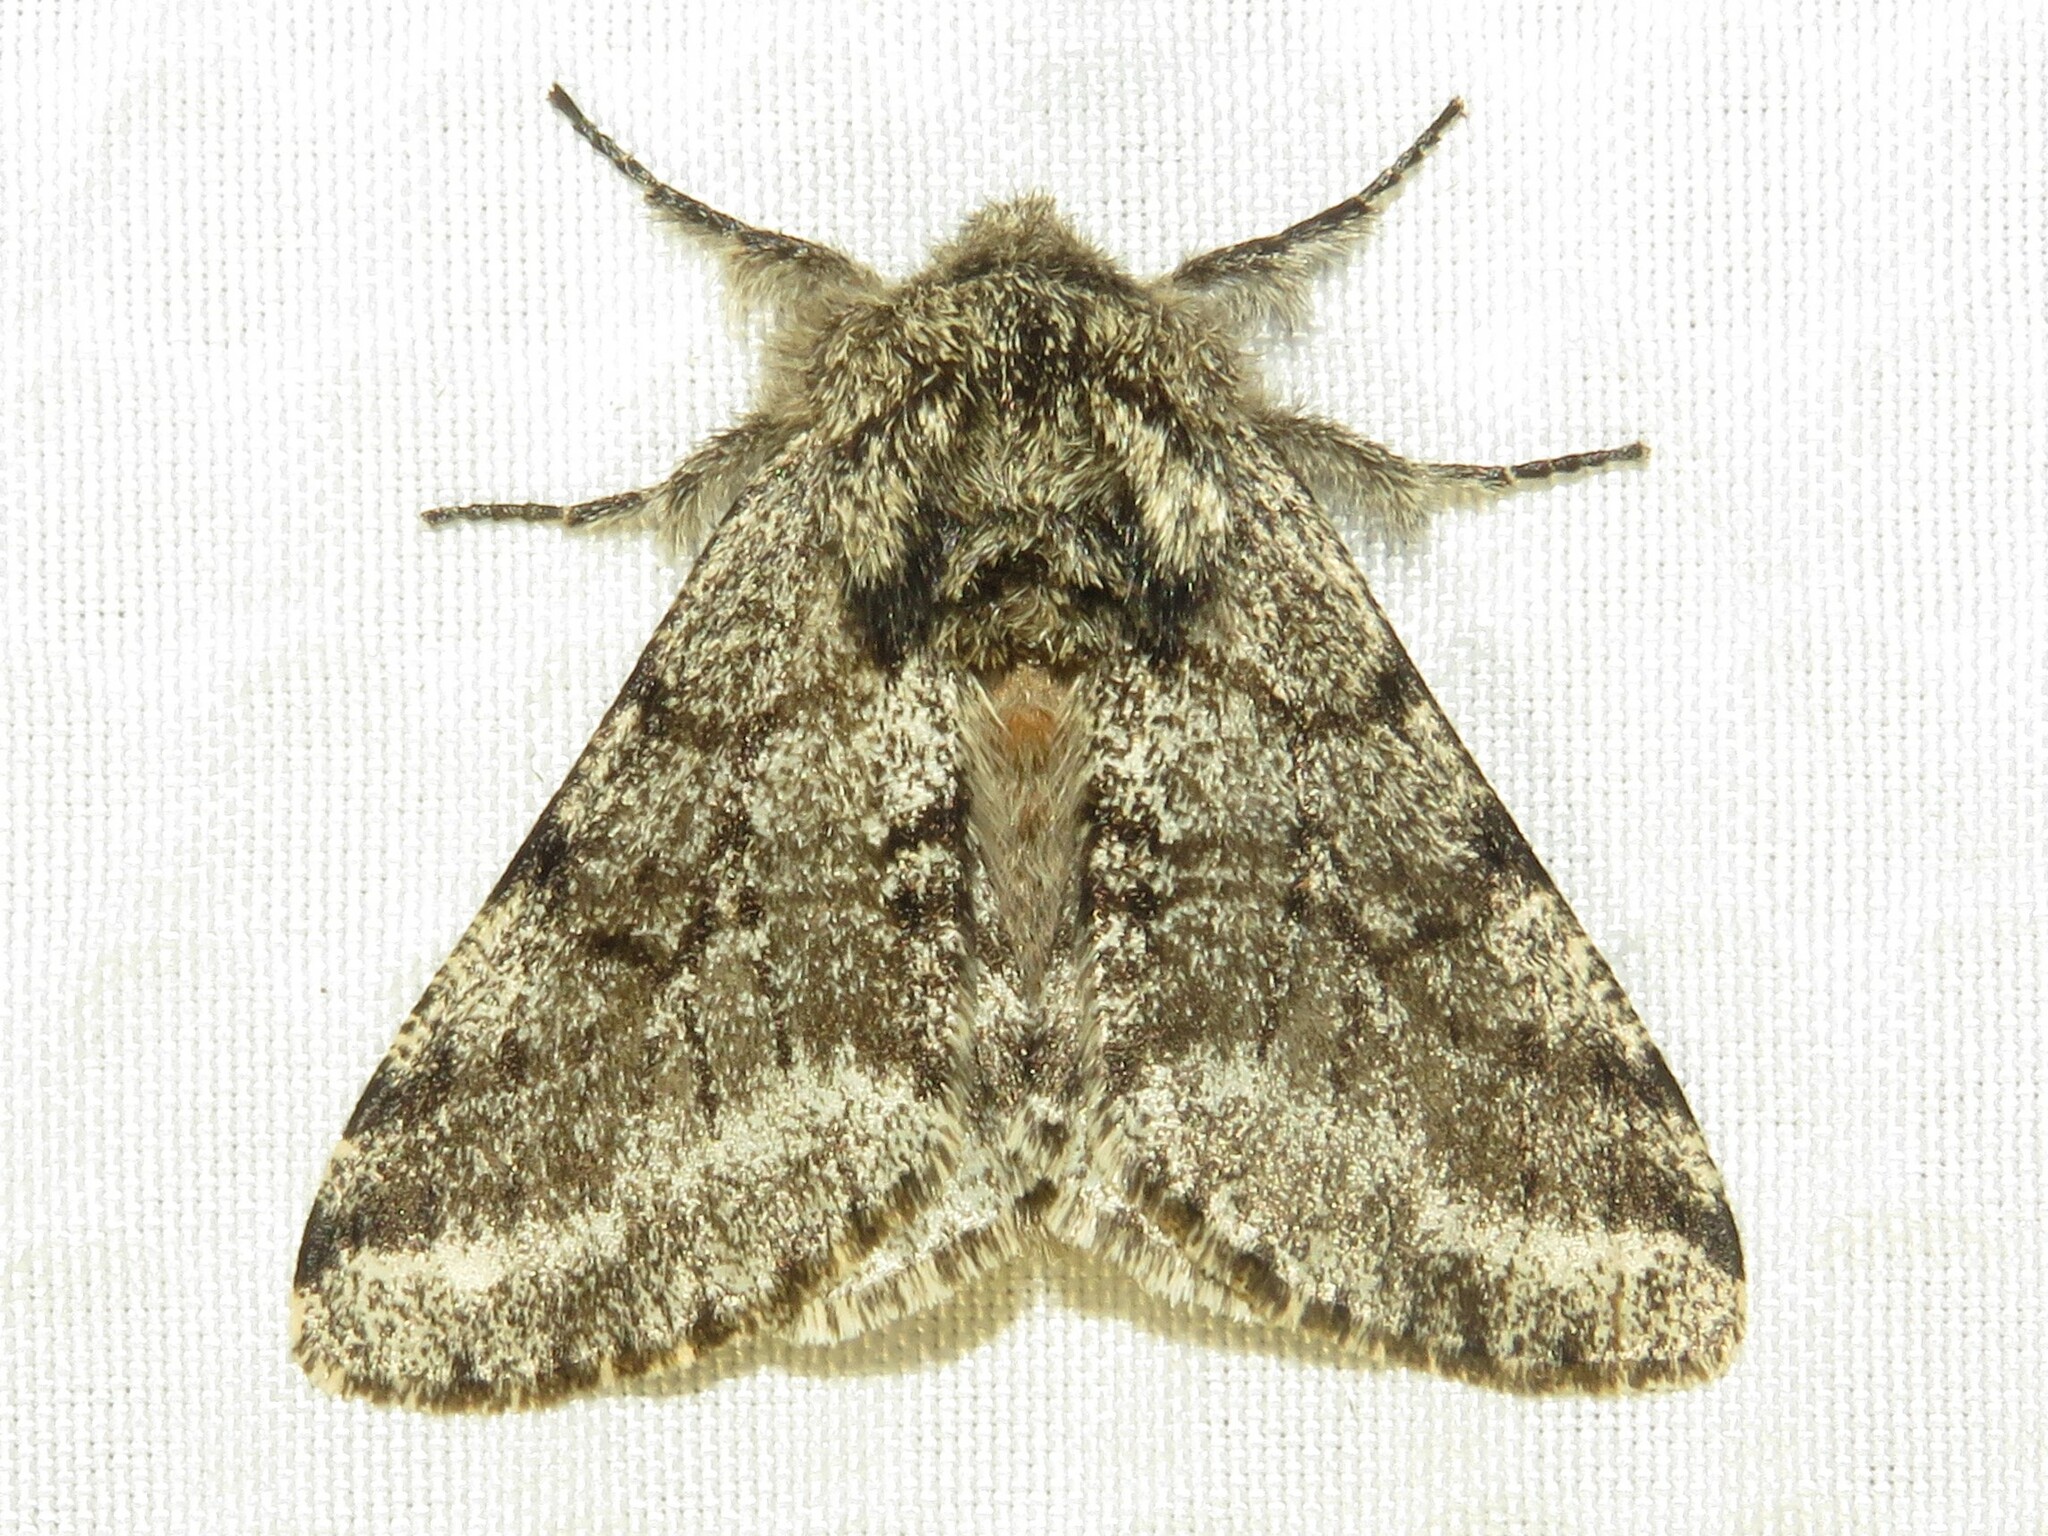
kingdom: Animalia
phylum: Arthropoda
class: Insecta
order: Lepidoptera
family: Geometridae
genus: Lycia
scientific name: Lycia ursaria
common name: Stout spanworm
